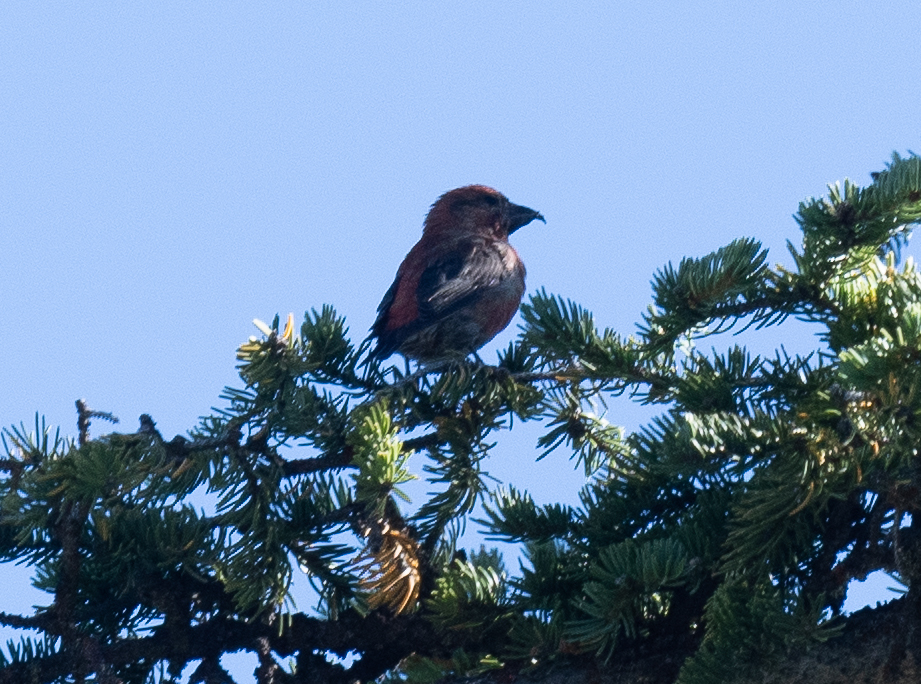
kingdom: Animalia
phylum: Chordata
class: Aves
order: Passeriformes
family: Fringillidae
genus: Loxia
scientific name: Loxia curvirostra
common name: Red crossbill
